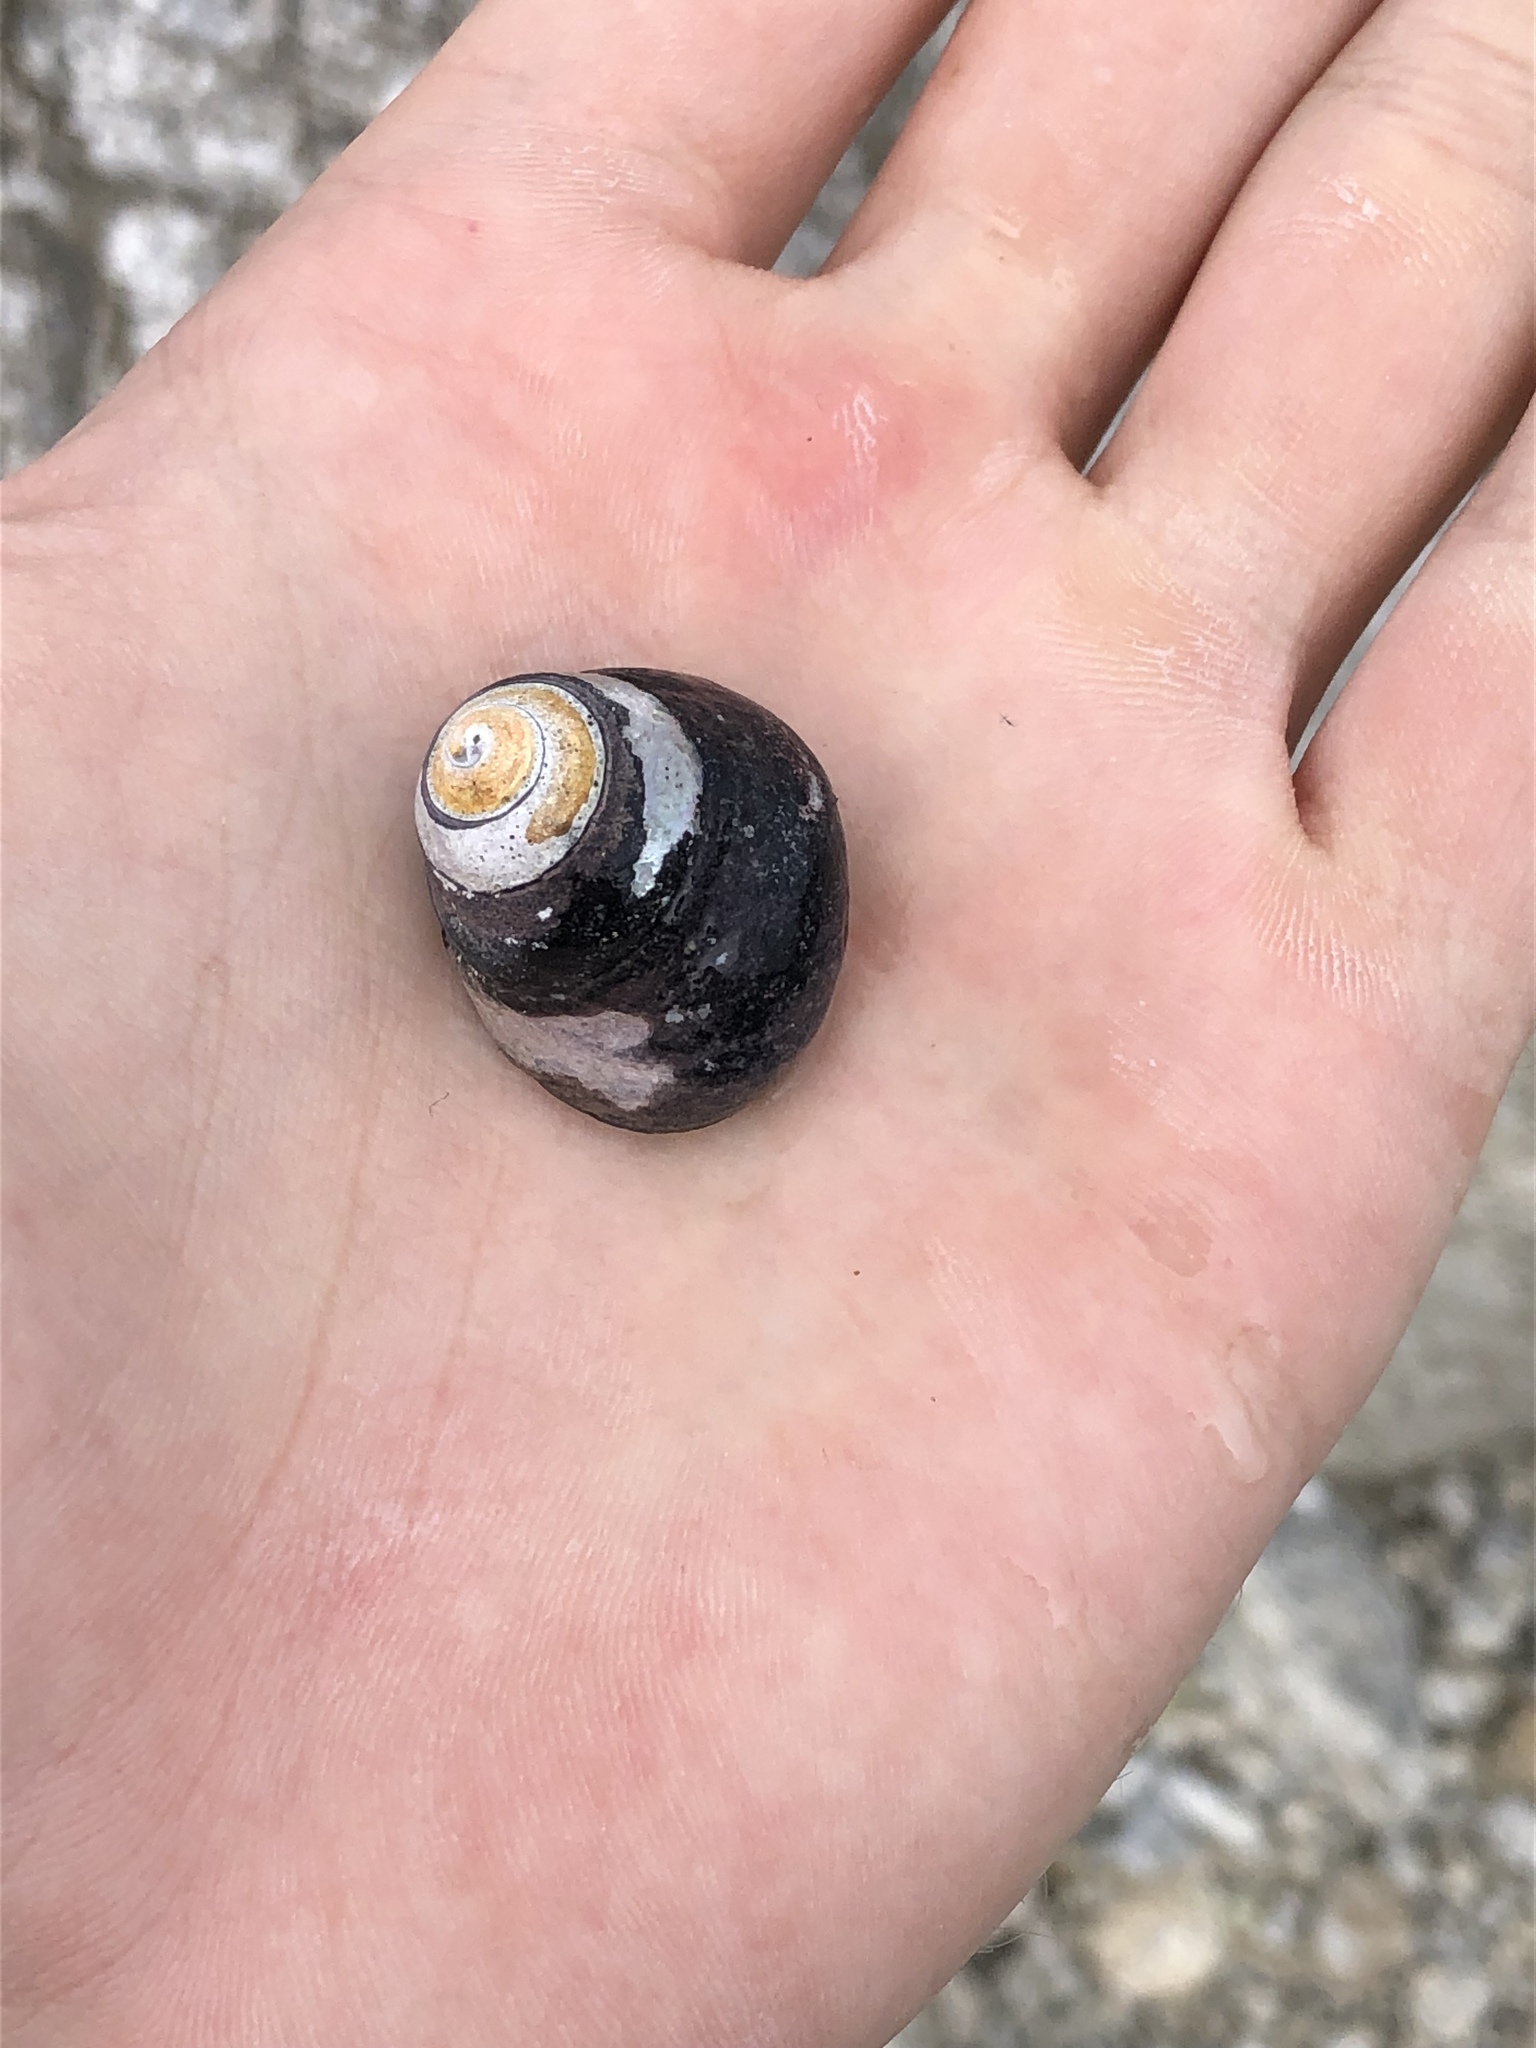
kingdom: Animalia
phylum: Mollusca
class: Gastropoda
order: Trochida
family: Tegulidae
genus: Tegula
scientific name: Tegula funebralis
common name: Black tegula
